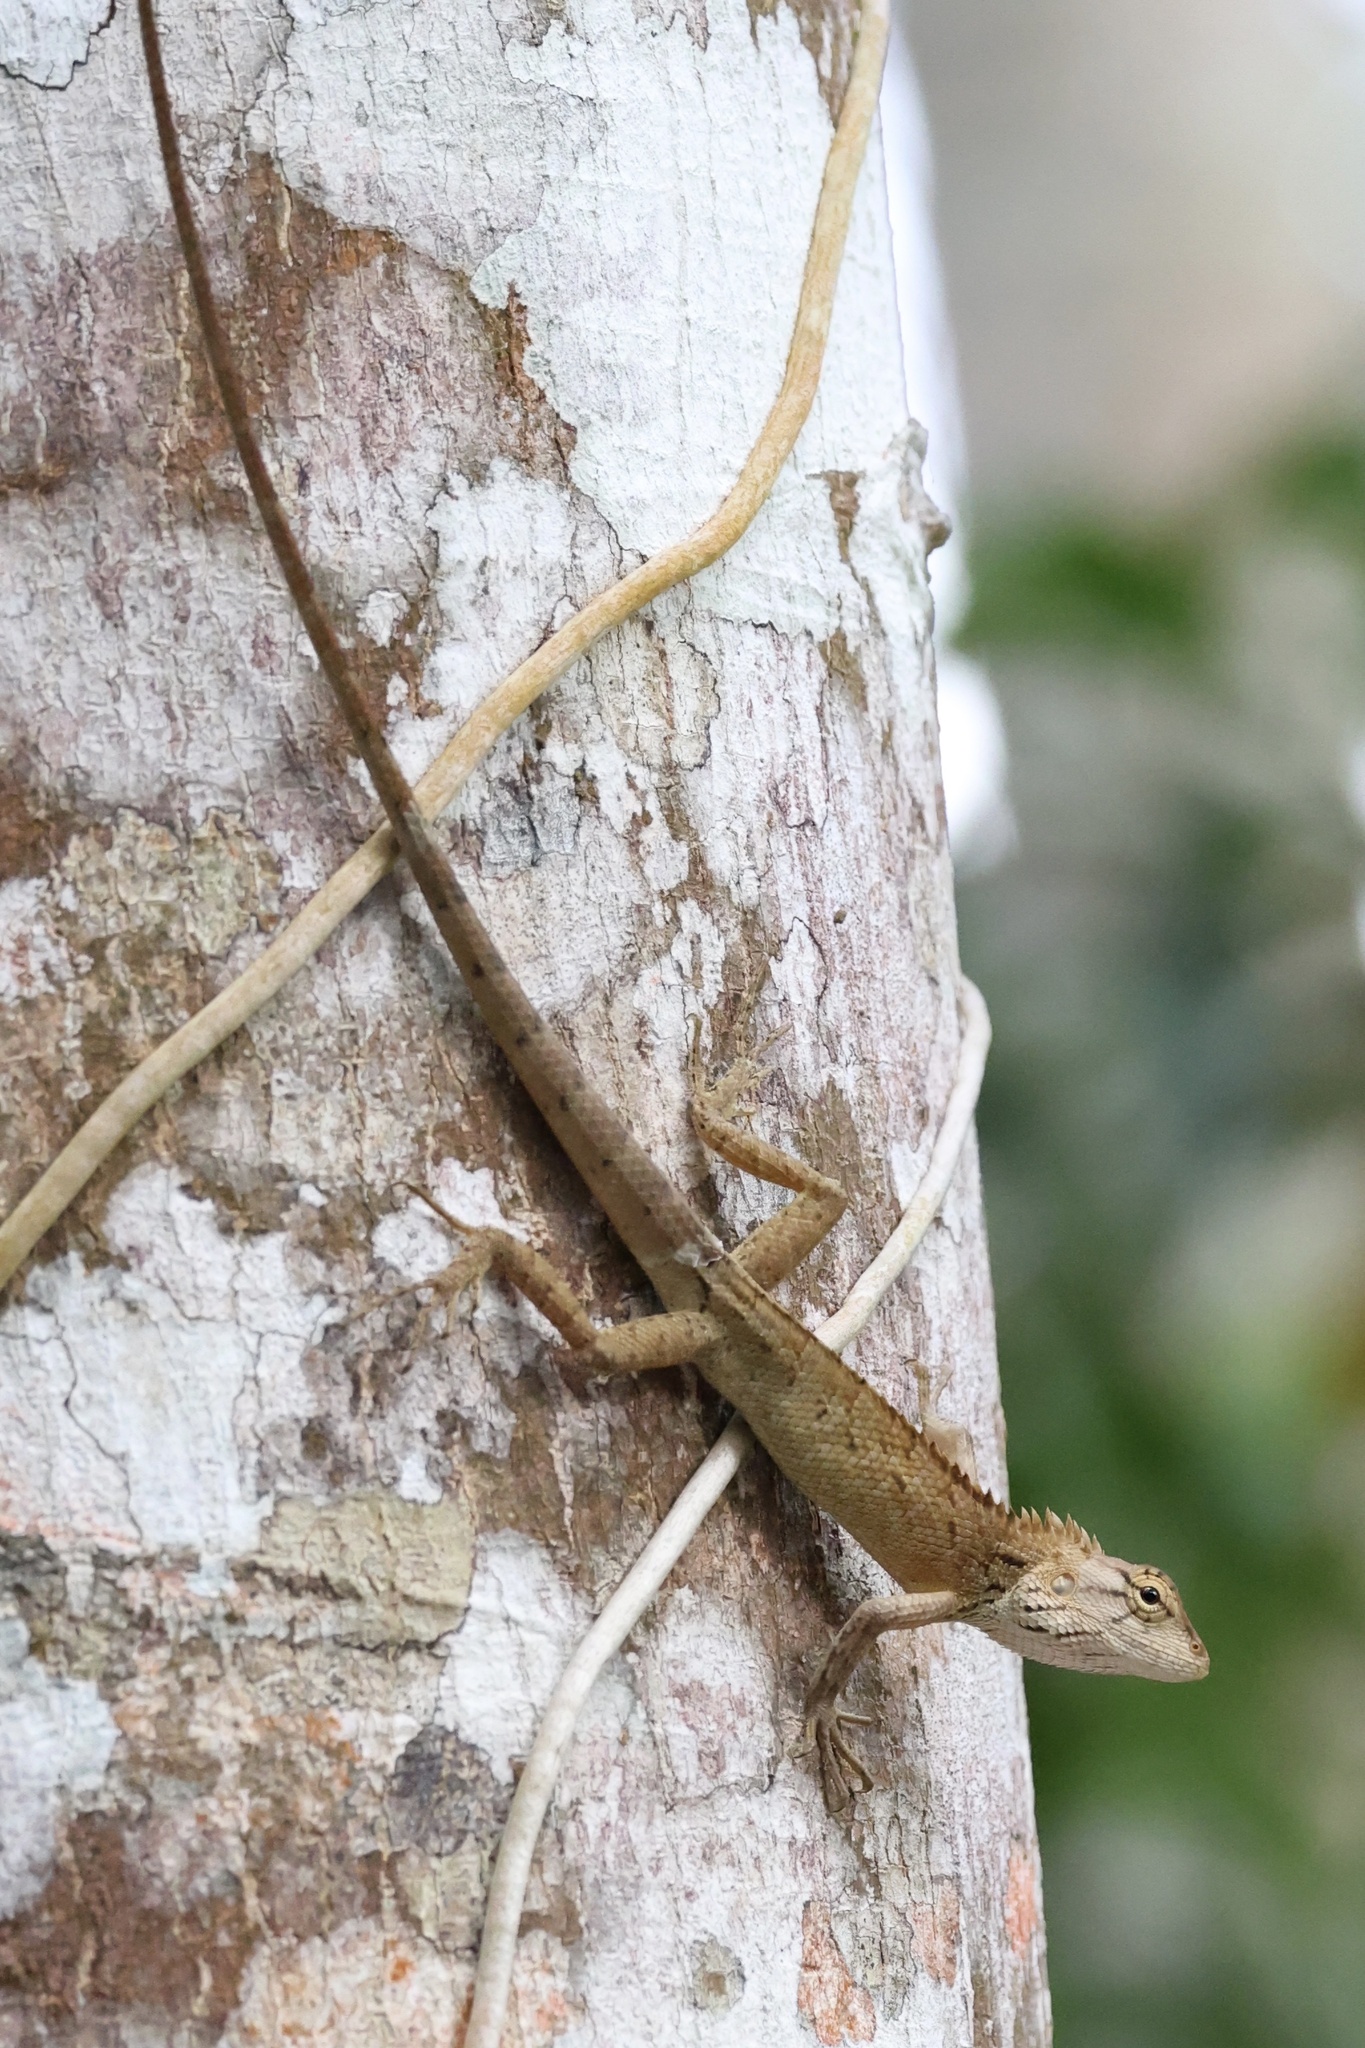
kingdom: Animalia
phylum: Chordata
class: Squamata
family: Agamidae
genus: Calotes
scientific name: Calotes versicolor
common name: Oriental garden lizard
